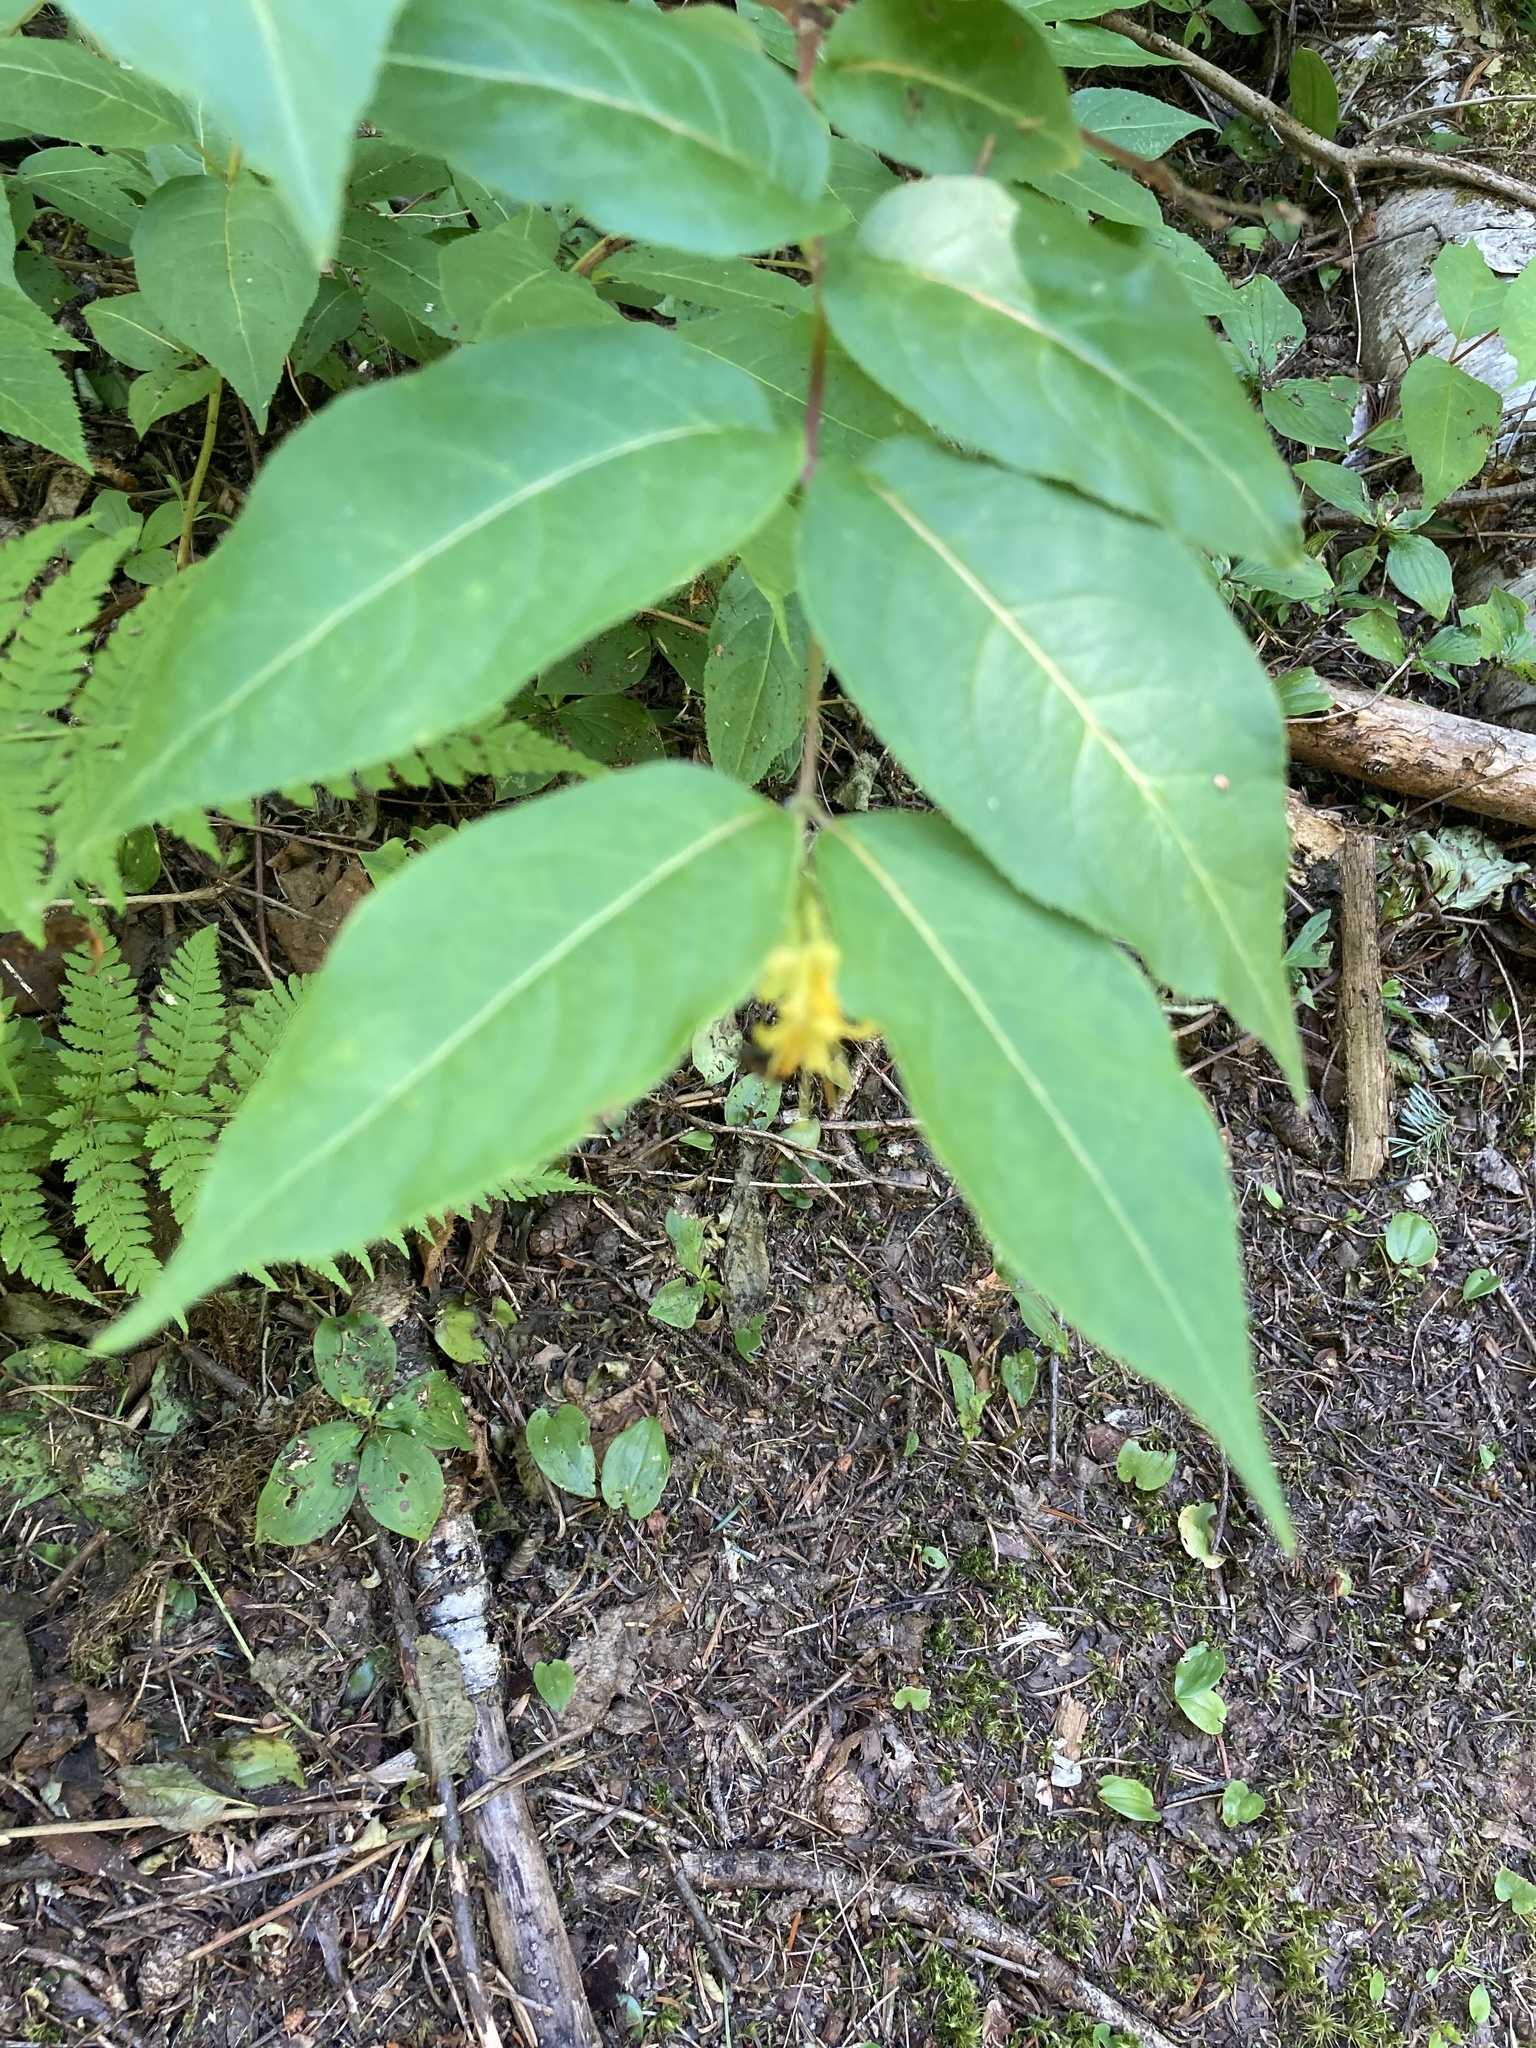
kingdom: Plantae
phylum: Tracheophyta
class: Magnoliopsida
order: Dipsacales
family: Caprifoliaceae
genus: Diervilla
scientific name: Diervilla lonicera
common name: Bush-honeysuckle
